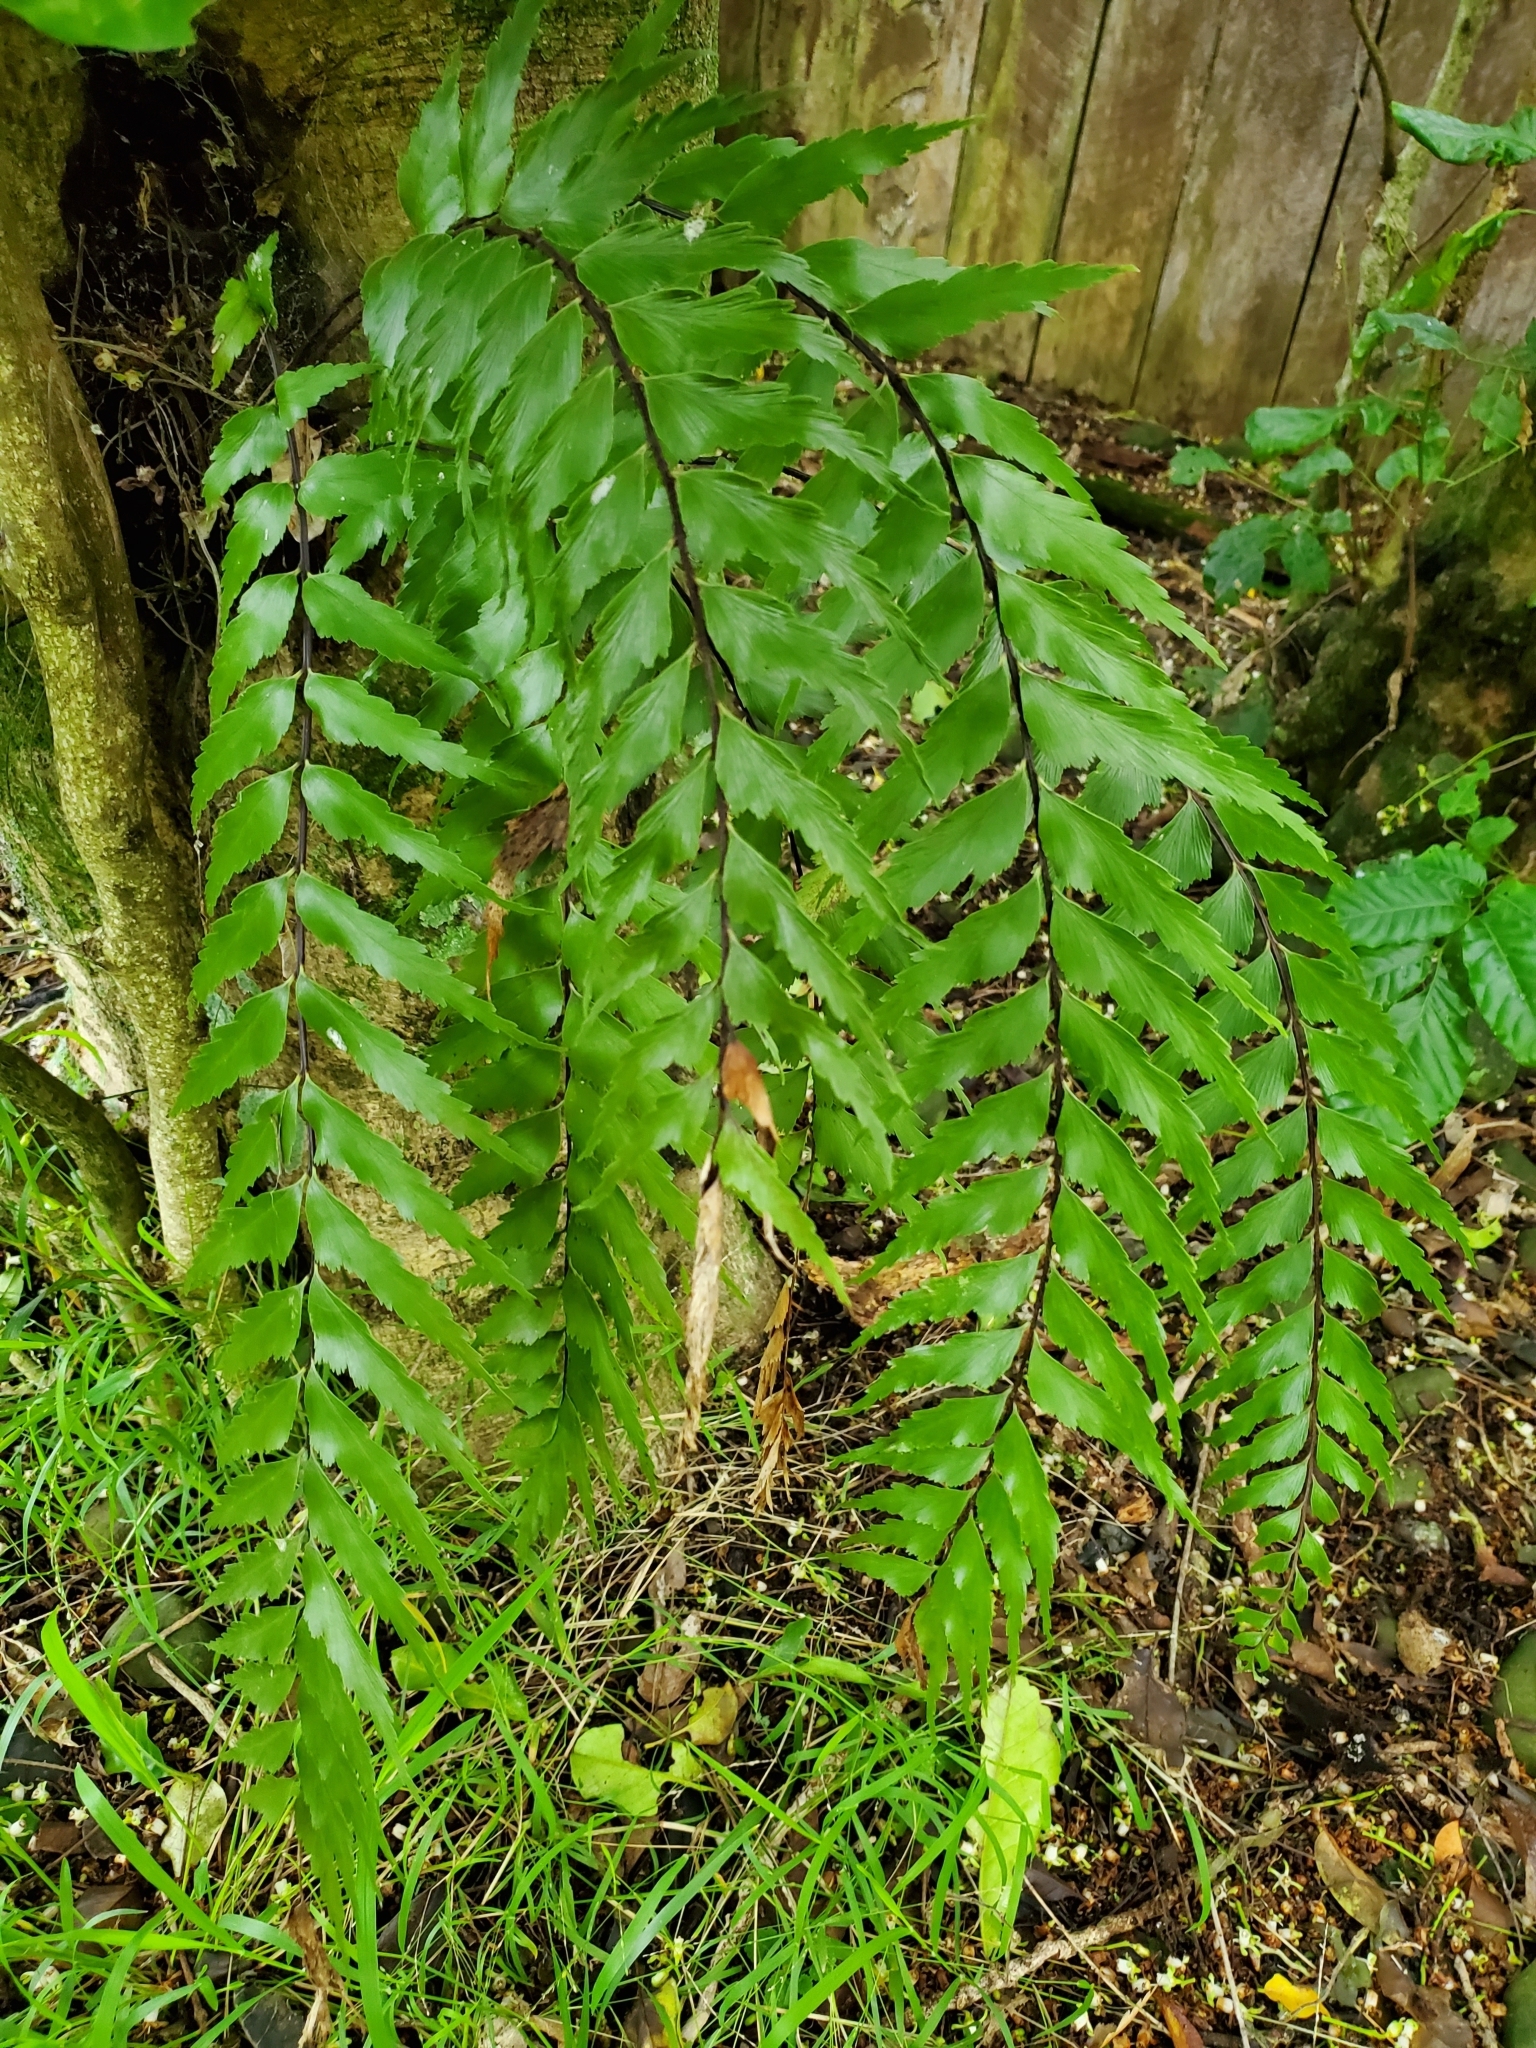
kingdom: Plantae
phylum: Tracheophyta
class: Polypodiopsida
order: Polypodiales
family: Aspleniaceae
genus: Asplenium
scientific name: Asplenium polyodon
